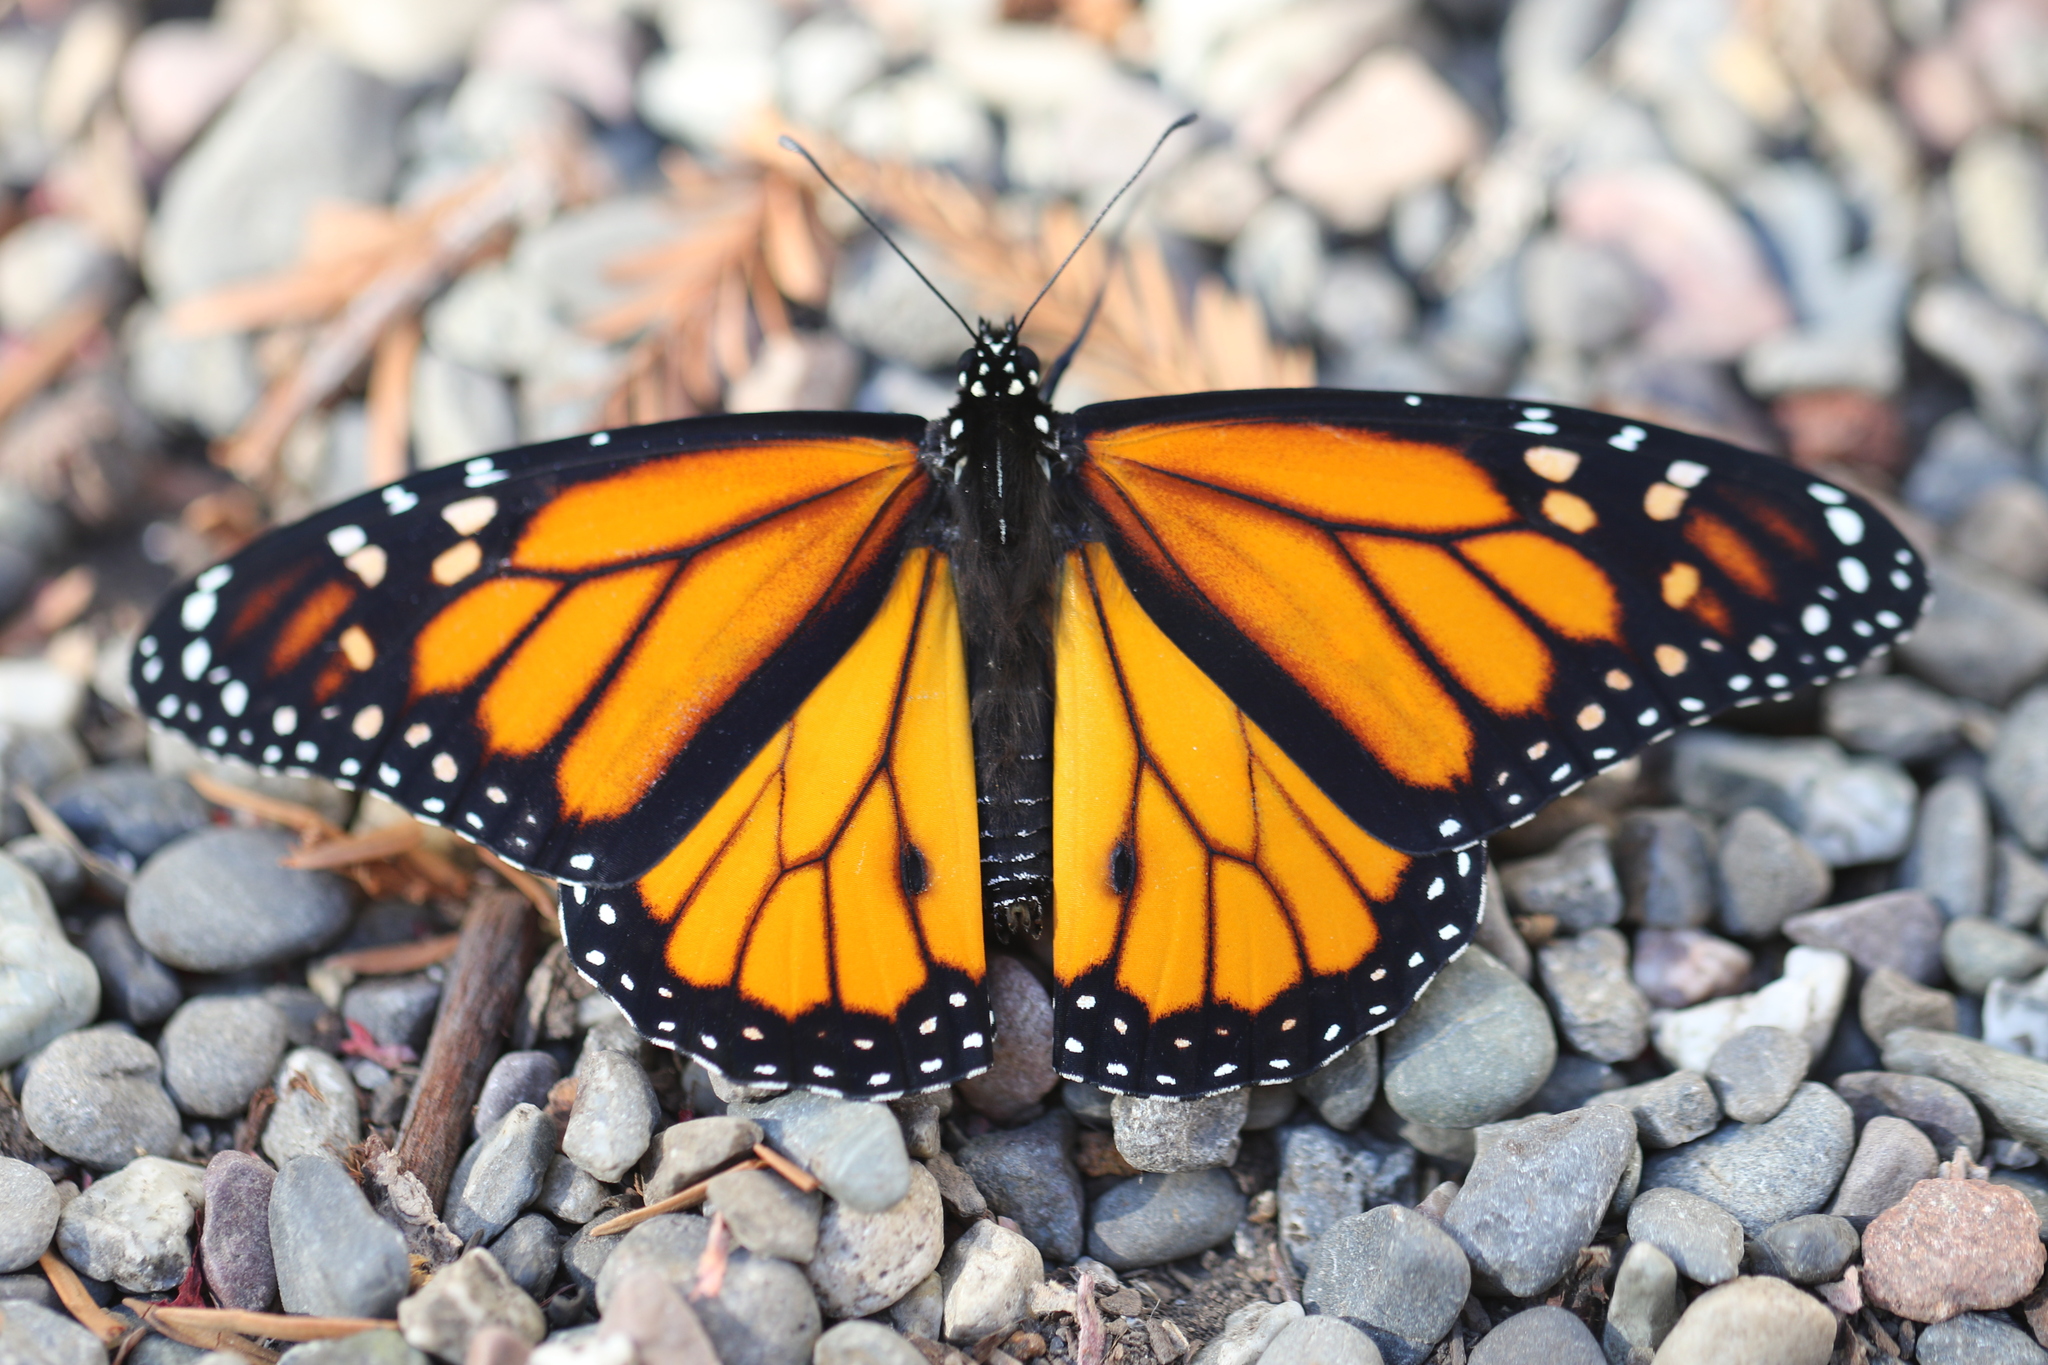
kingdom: Animalia
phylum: Arthropoda
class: Insecta
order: Lepidoptera
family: Nymphalidae
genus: Danaus
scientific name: Danaus plexippus
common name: Monarch
